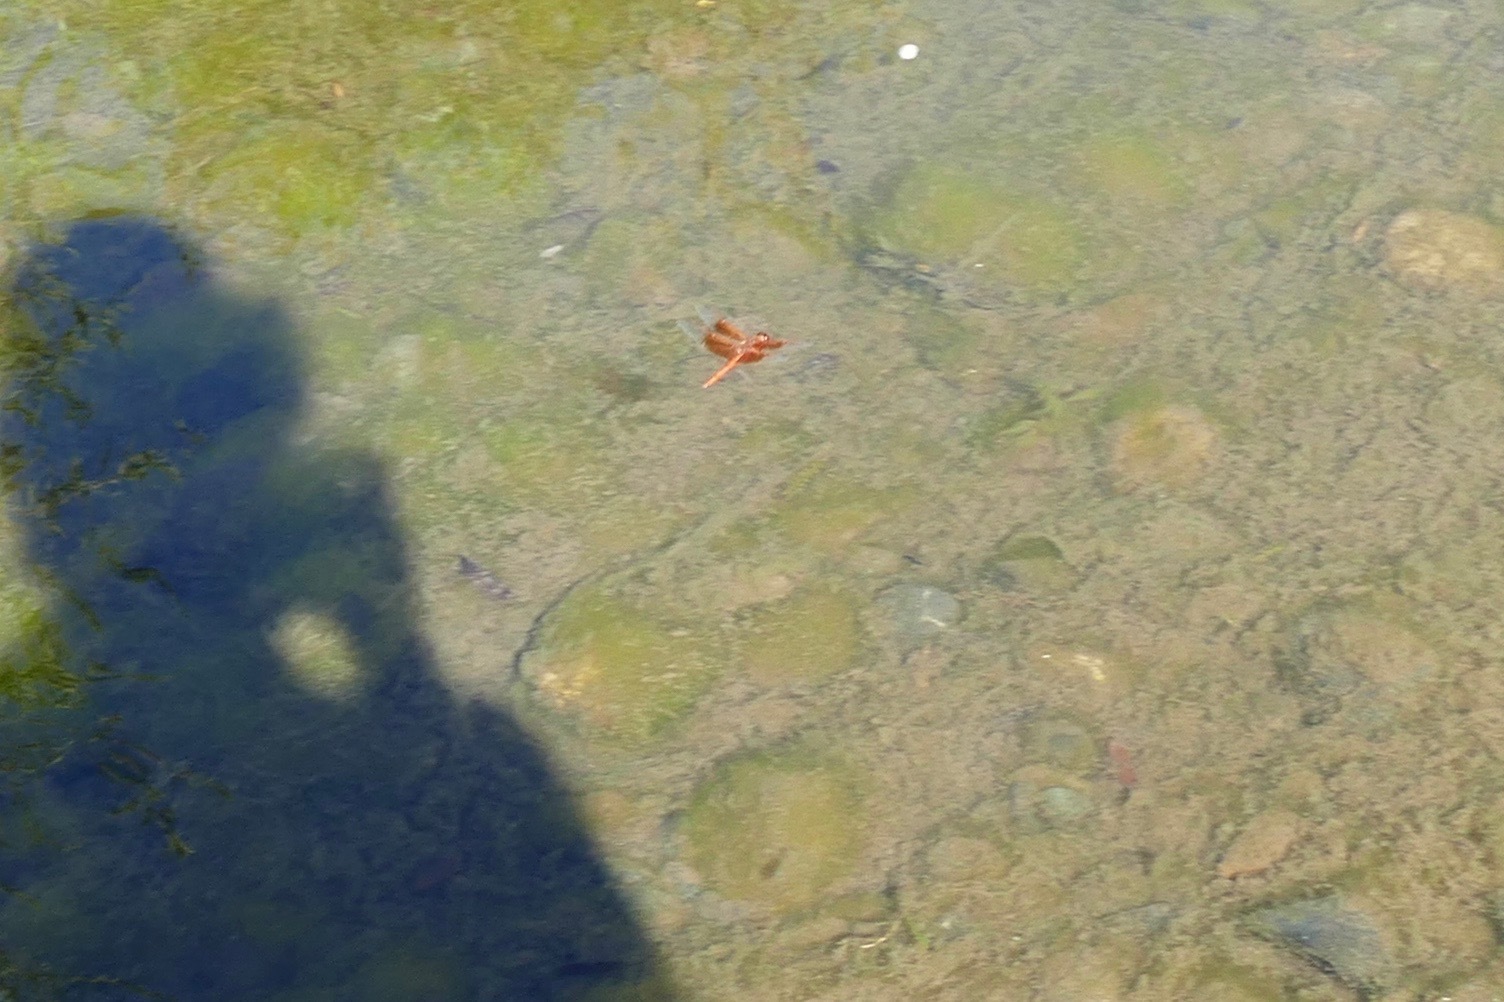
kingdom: Animalia
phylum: Arthropoda
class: Insecta
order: Odonata
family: Libellulidae
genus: Libellula
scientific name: Libellula saturata
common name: Flame skimmer
